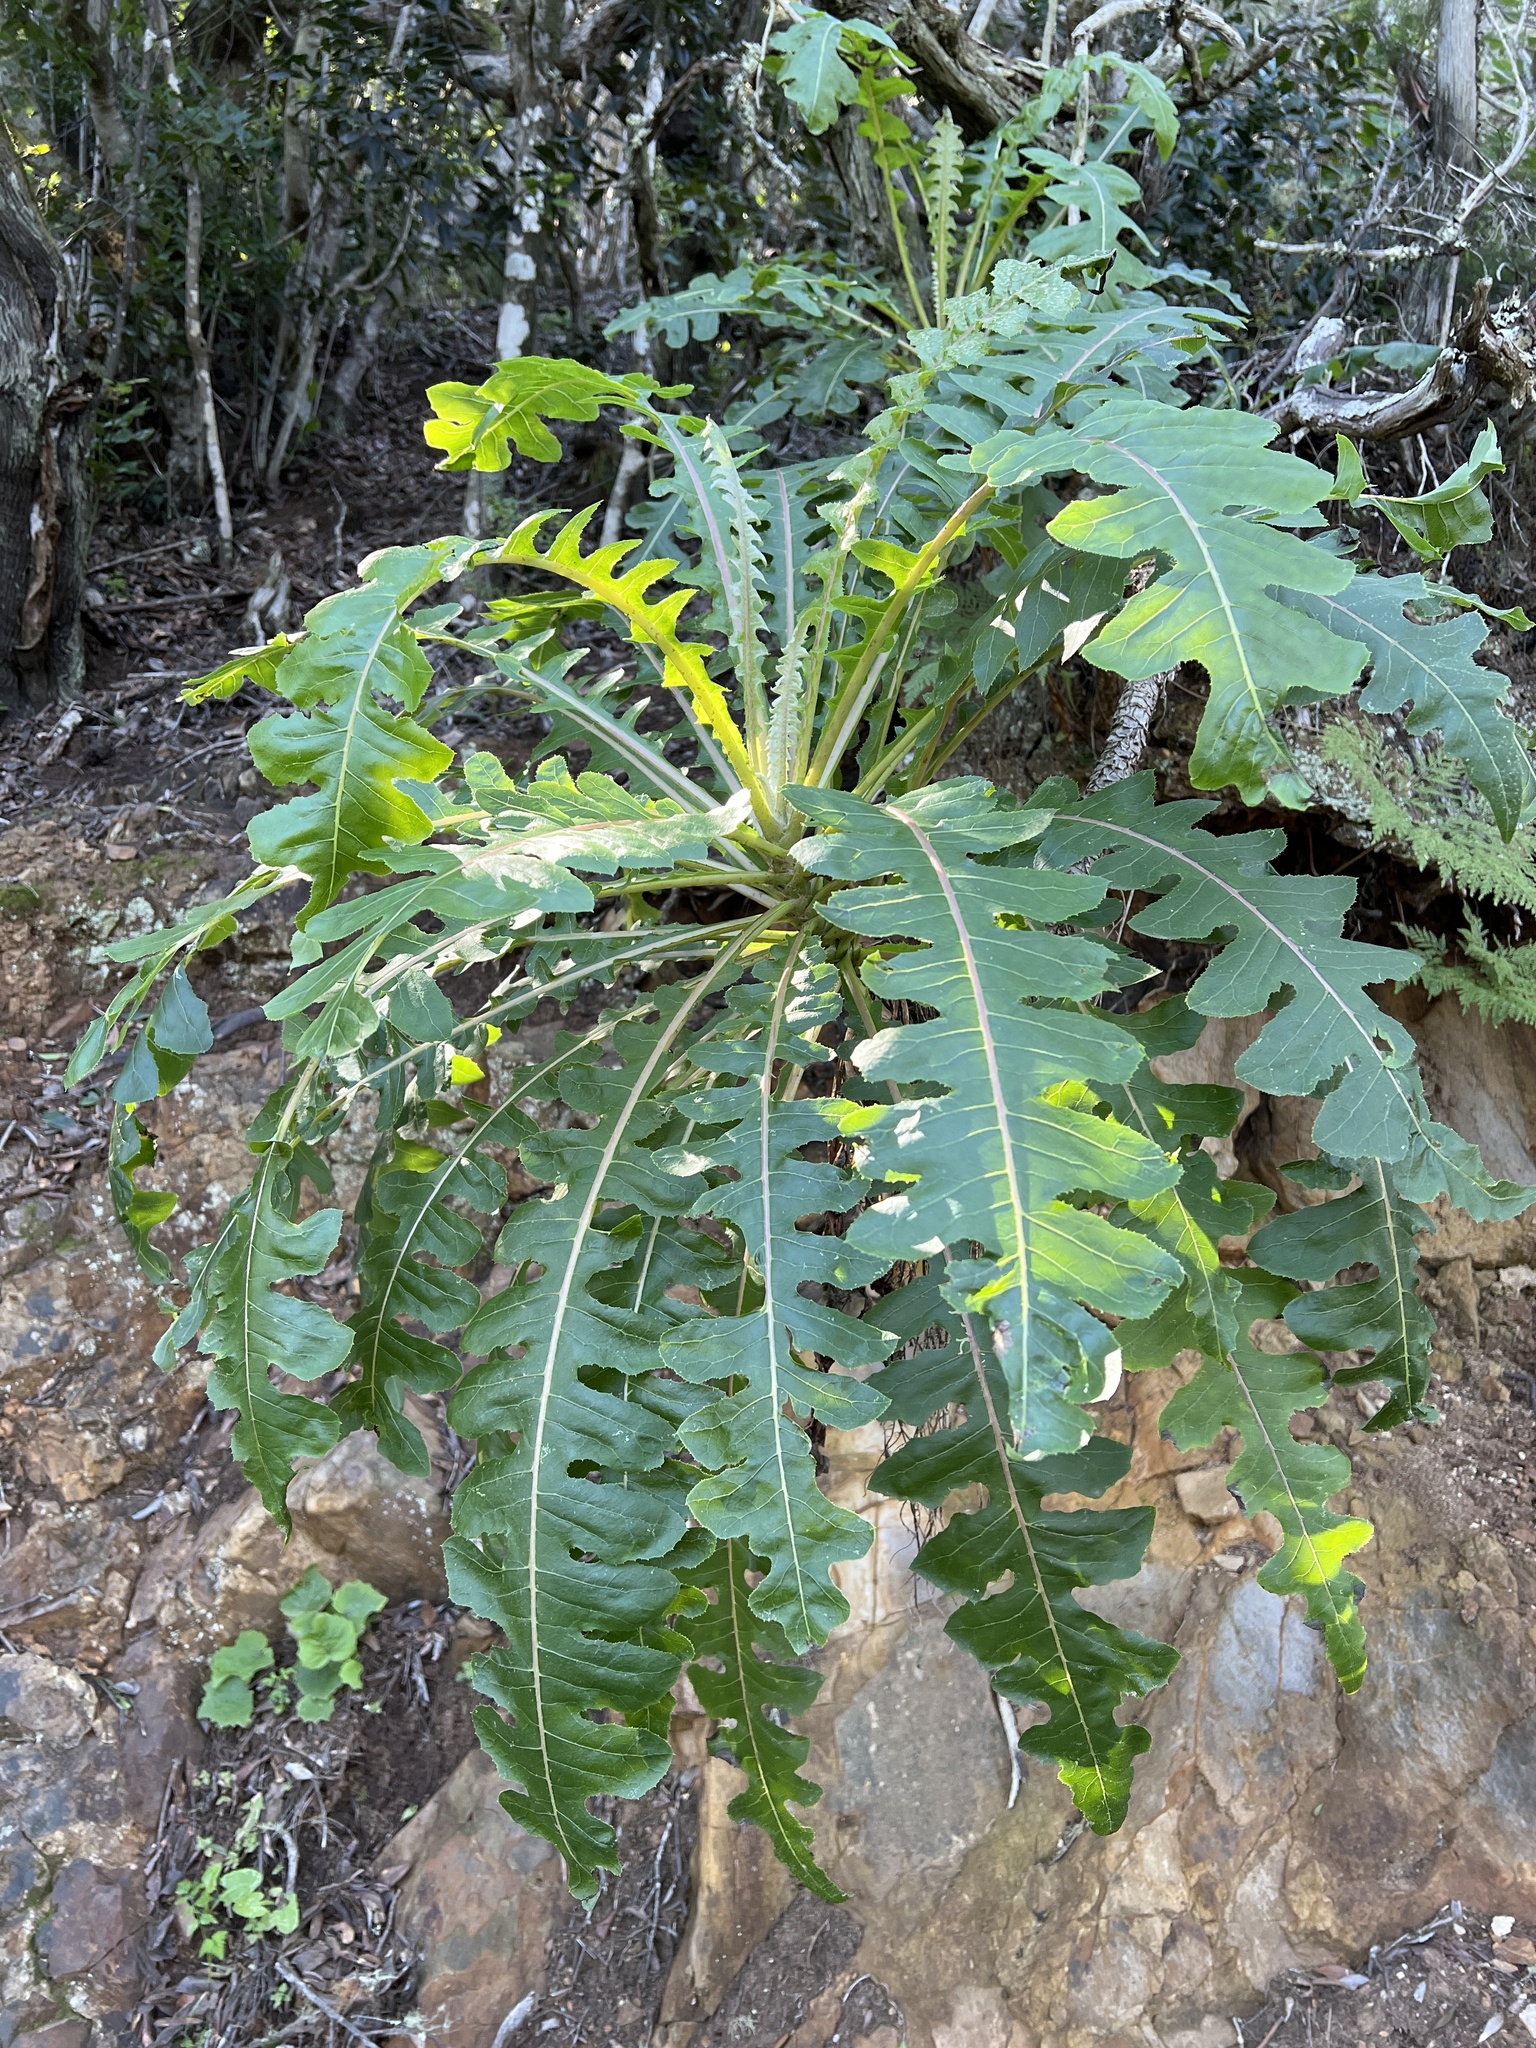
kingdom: Plantae
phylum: Tracheophyta
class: Magnoliopsida
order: Asterales
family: Asteraceae
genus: Sonchus
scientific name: Sonchus hierrensis
